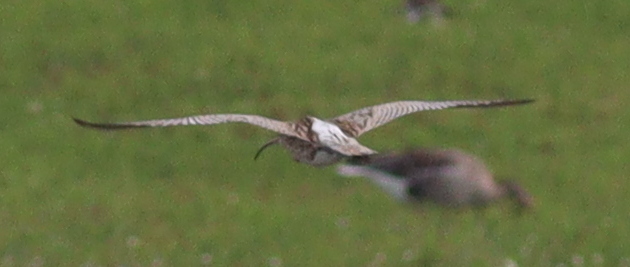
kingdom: Animalia
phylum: Chordata
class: Aves
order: Charadriiformes
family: Scolopacidae
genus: Numenius
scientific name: Numenius arquata
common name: Eurasian curlew
